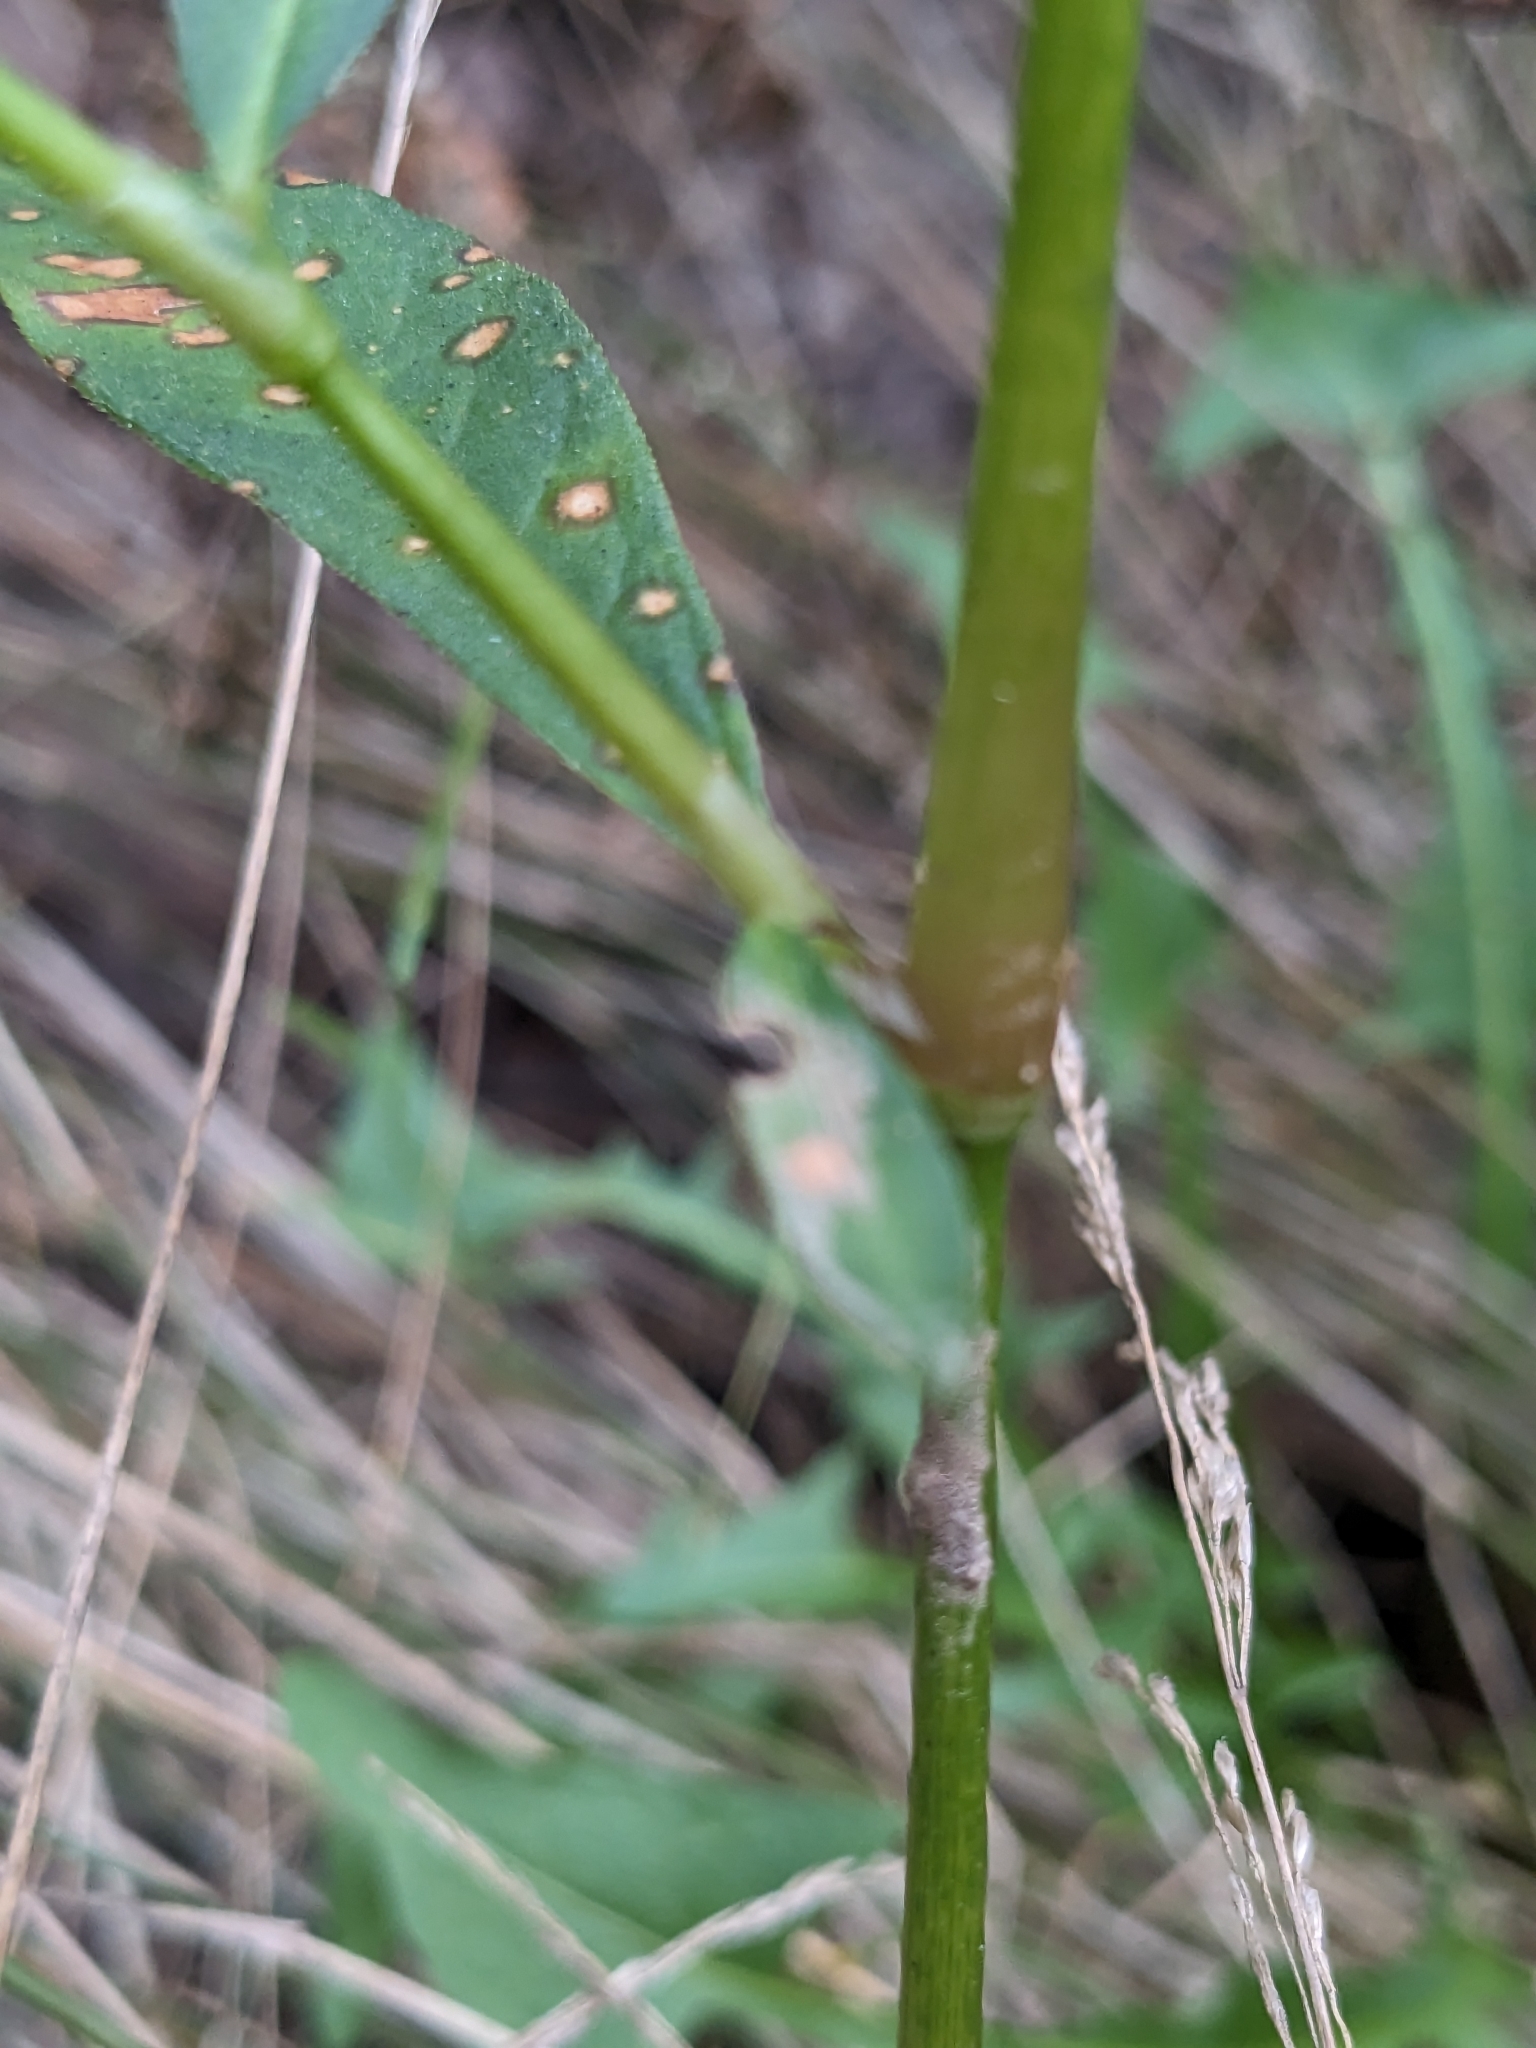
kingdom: Plantae
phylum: Tracheophyta
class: Magnoliopsida
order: Caryophyllales
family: Polygonaceae
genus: Persicaria
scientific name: Persicaria maculosa
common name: Redshank
